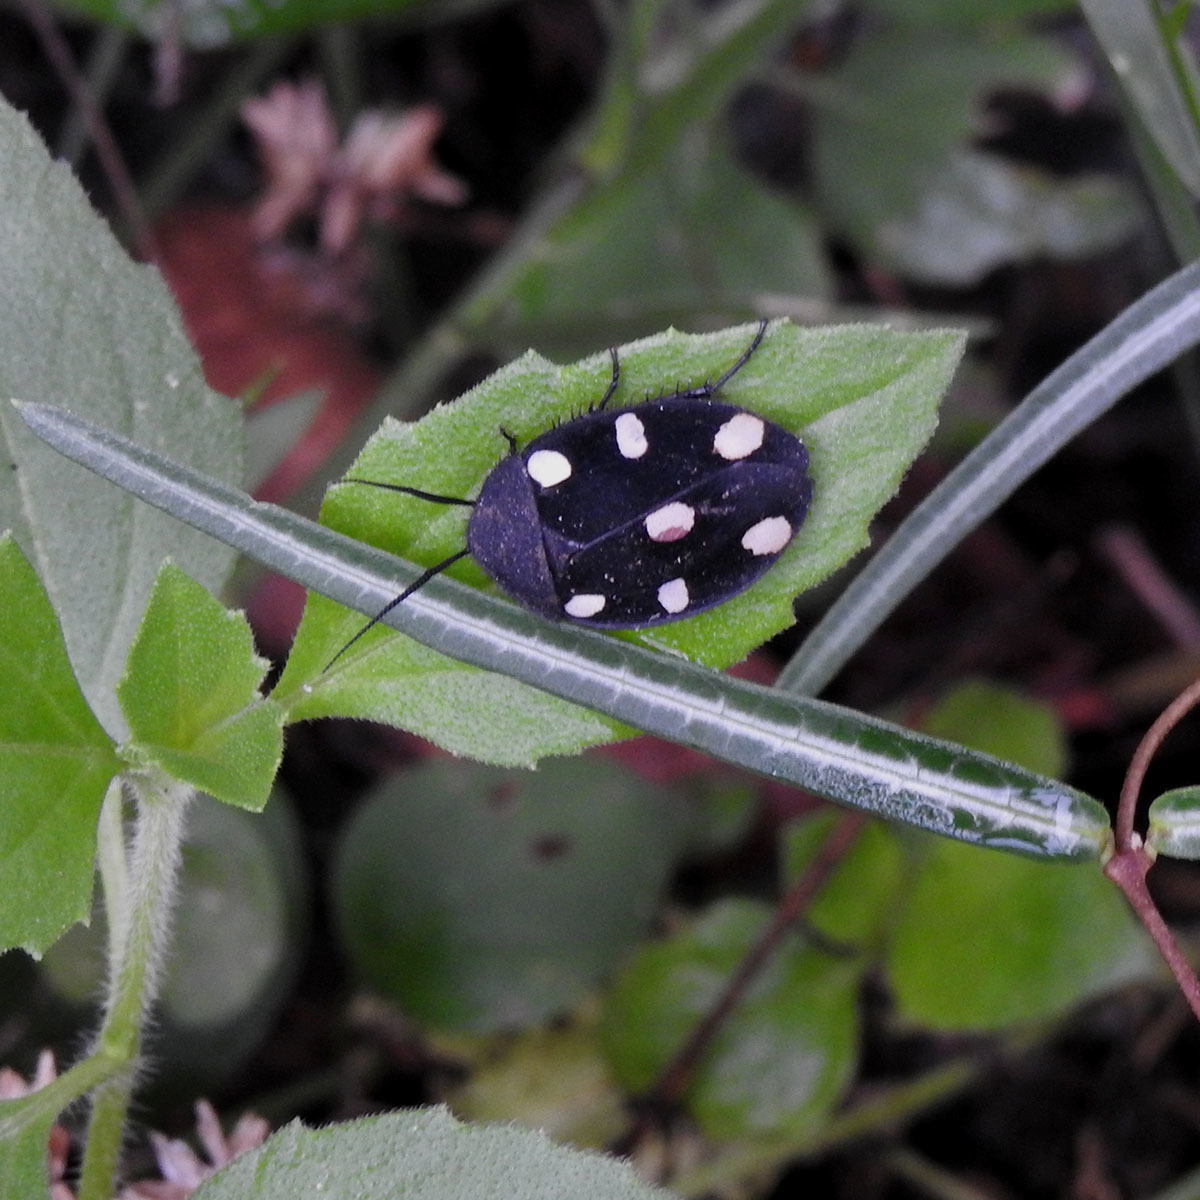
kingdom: Animalia
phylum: Arthropoda
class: Insecta
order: Blattodea
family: Corydiidae
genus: Therea
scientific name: Therea petiveriana
